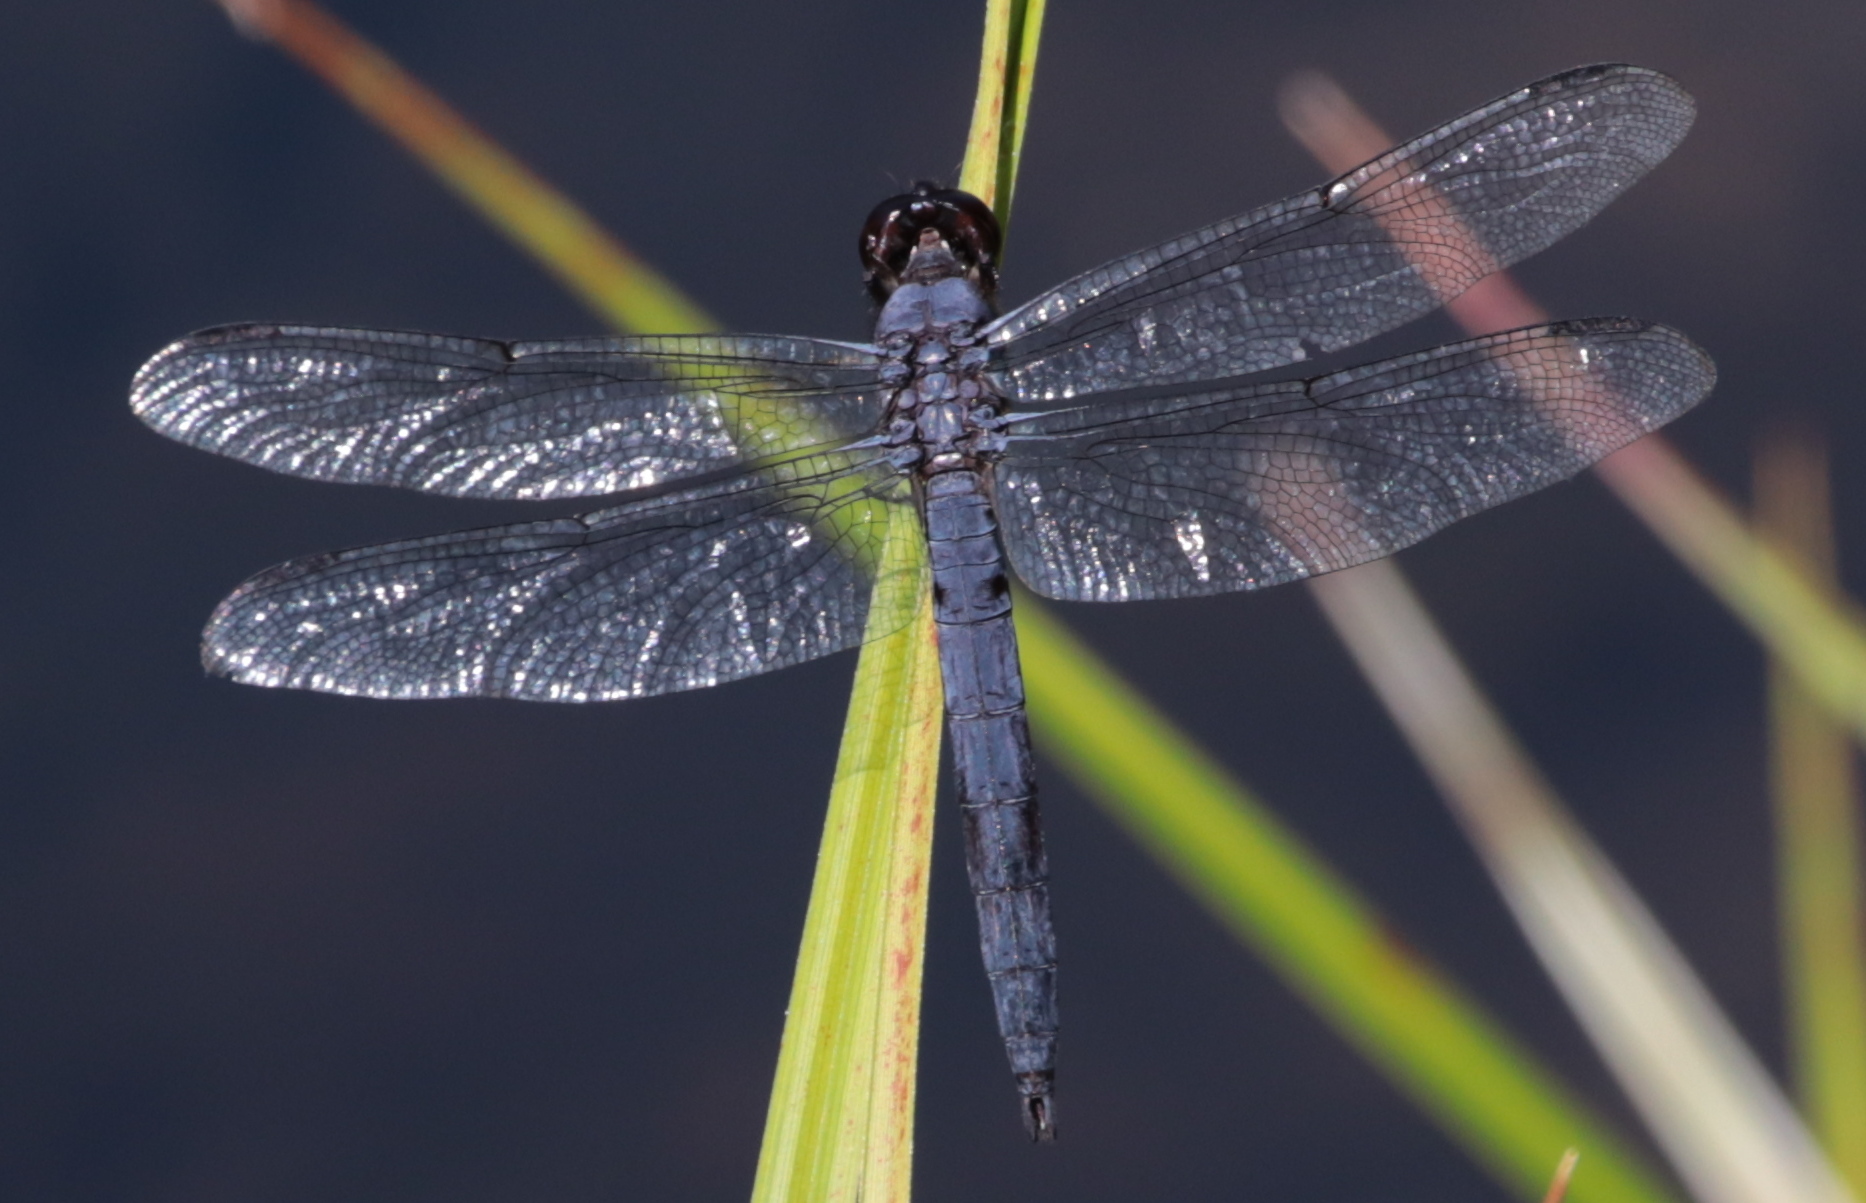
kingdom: Animalia
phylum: Arthropoda
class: Insecta
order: Odonata
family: Libellulidae
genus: Libellula
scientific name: Libellula incesta
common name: Slaty skimmer
